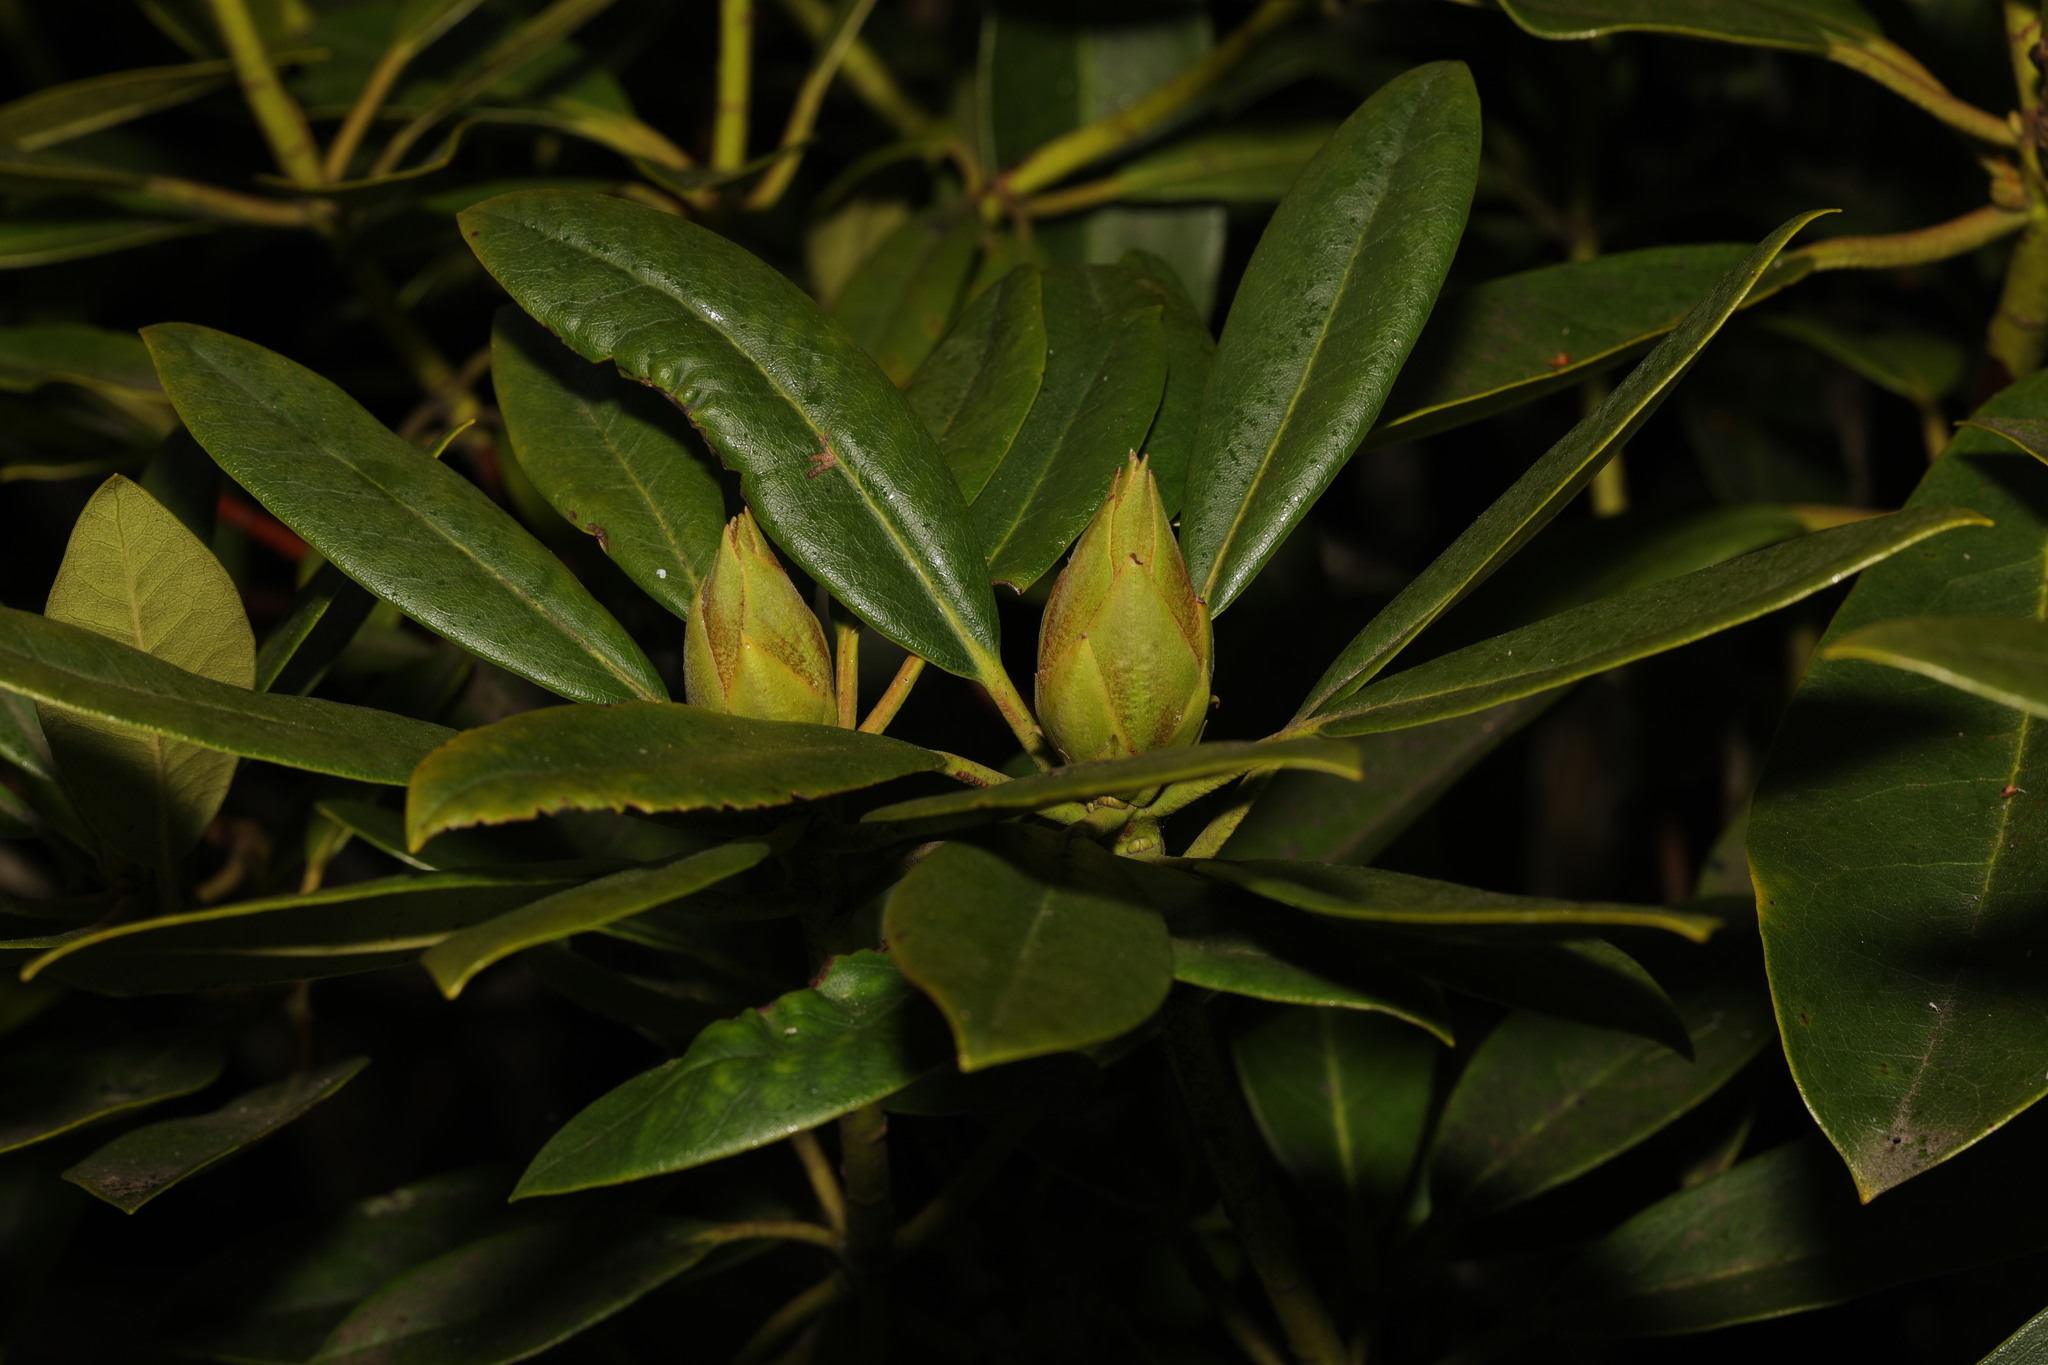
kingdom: Plantae
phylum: Tracheophyta
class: Magnoliopsida
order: Ericales
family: Ericaceae
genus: Rhododendron
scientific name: Rhododendron ponticum
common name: Rhododendron
